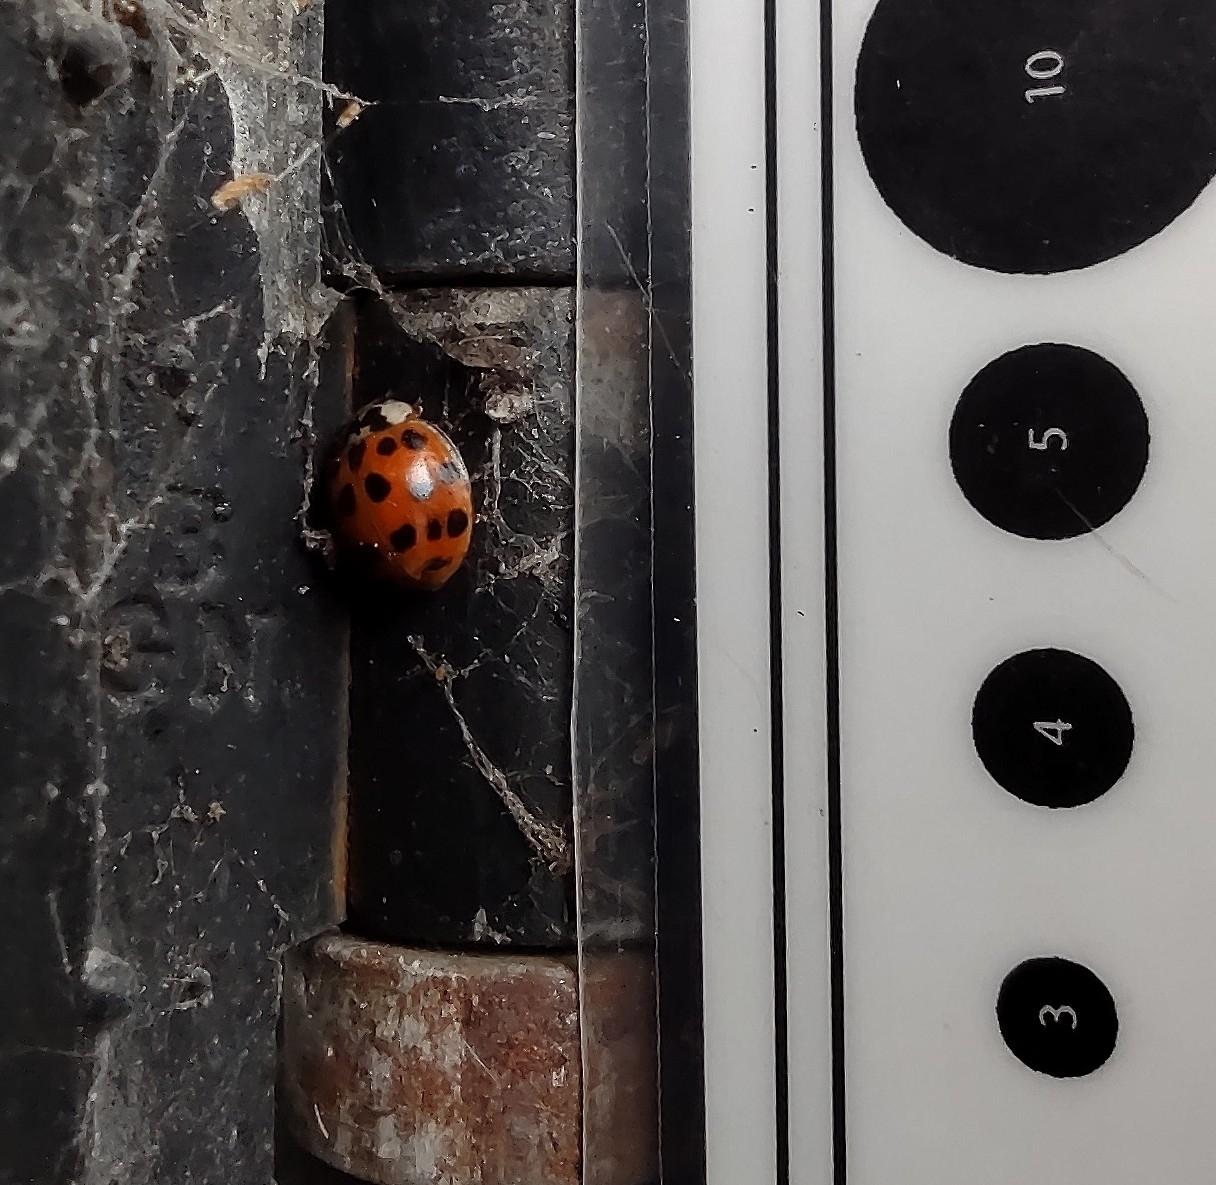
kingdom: Animalia
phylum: Arthropoda
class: Insecta
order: Coleoptera
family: Coccinellidae
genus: Harmonia
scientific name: Harmonia axyridis
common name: Harlequin ladybird
